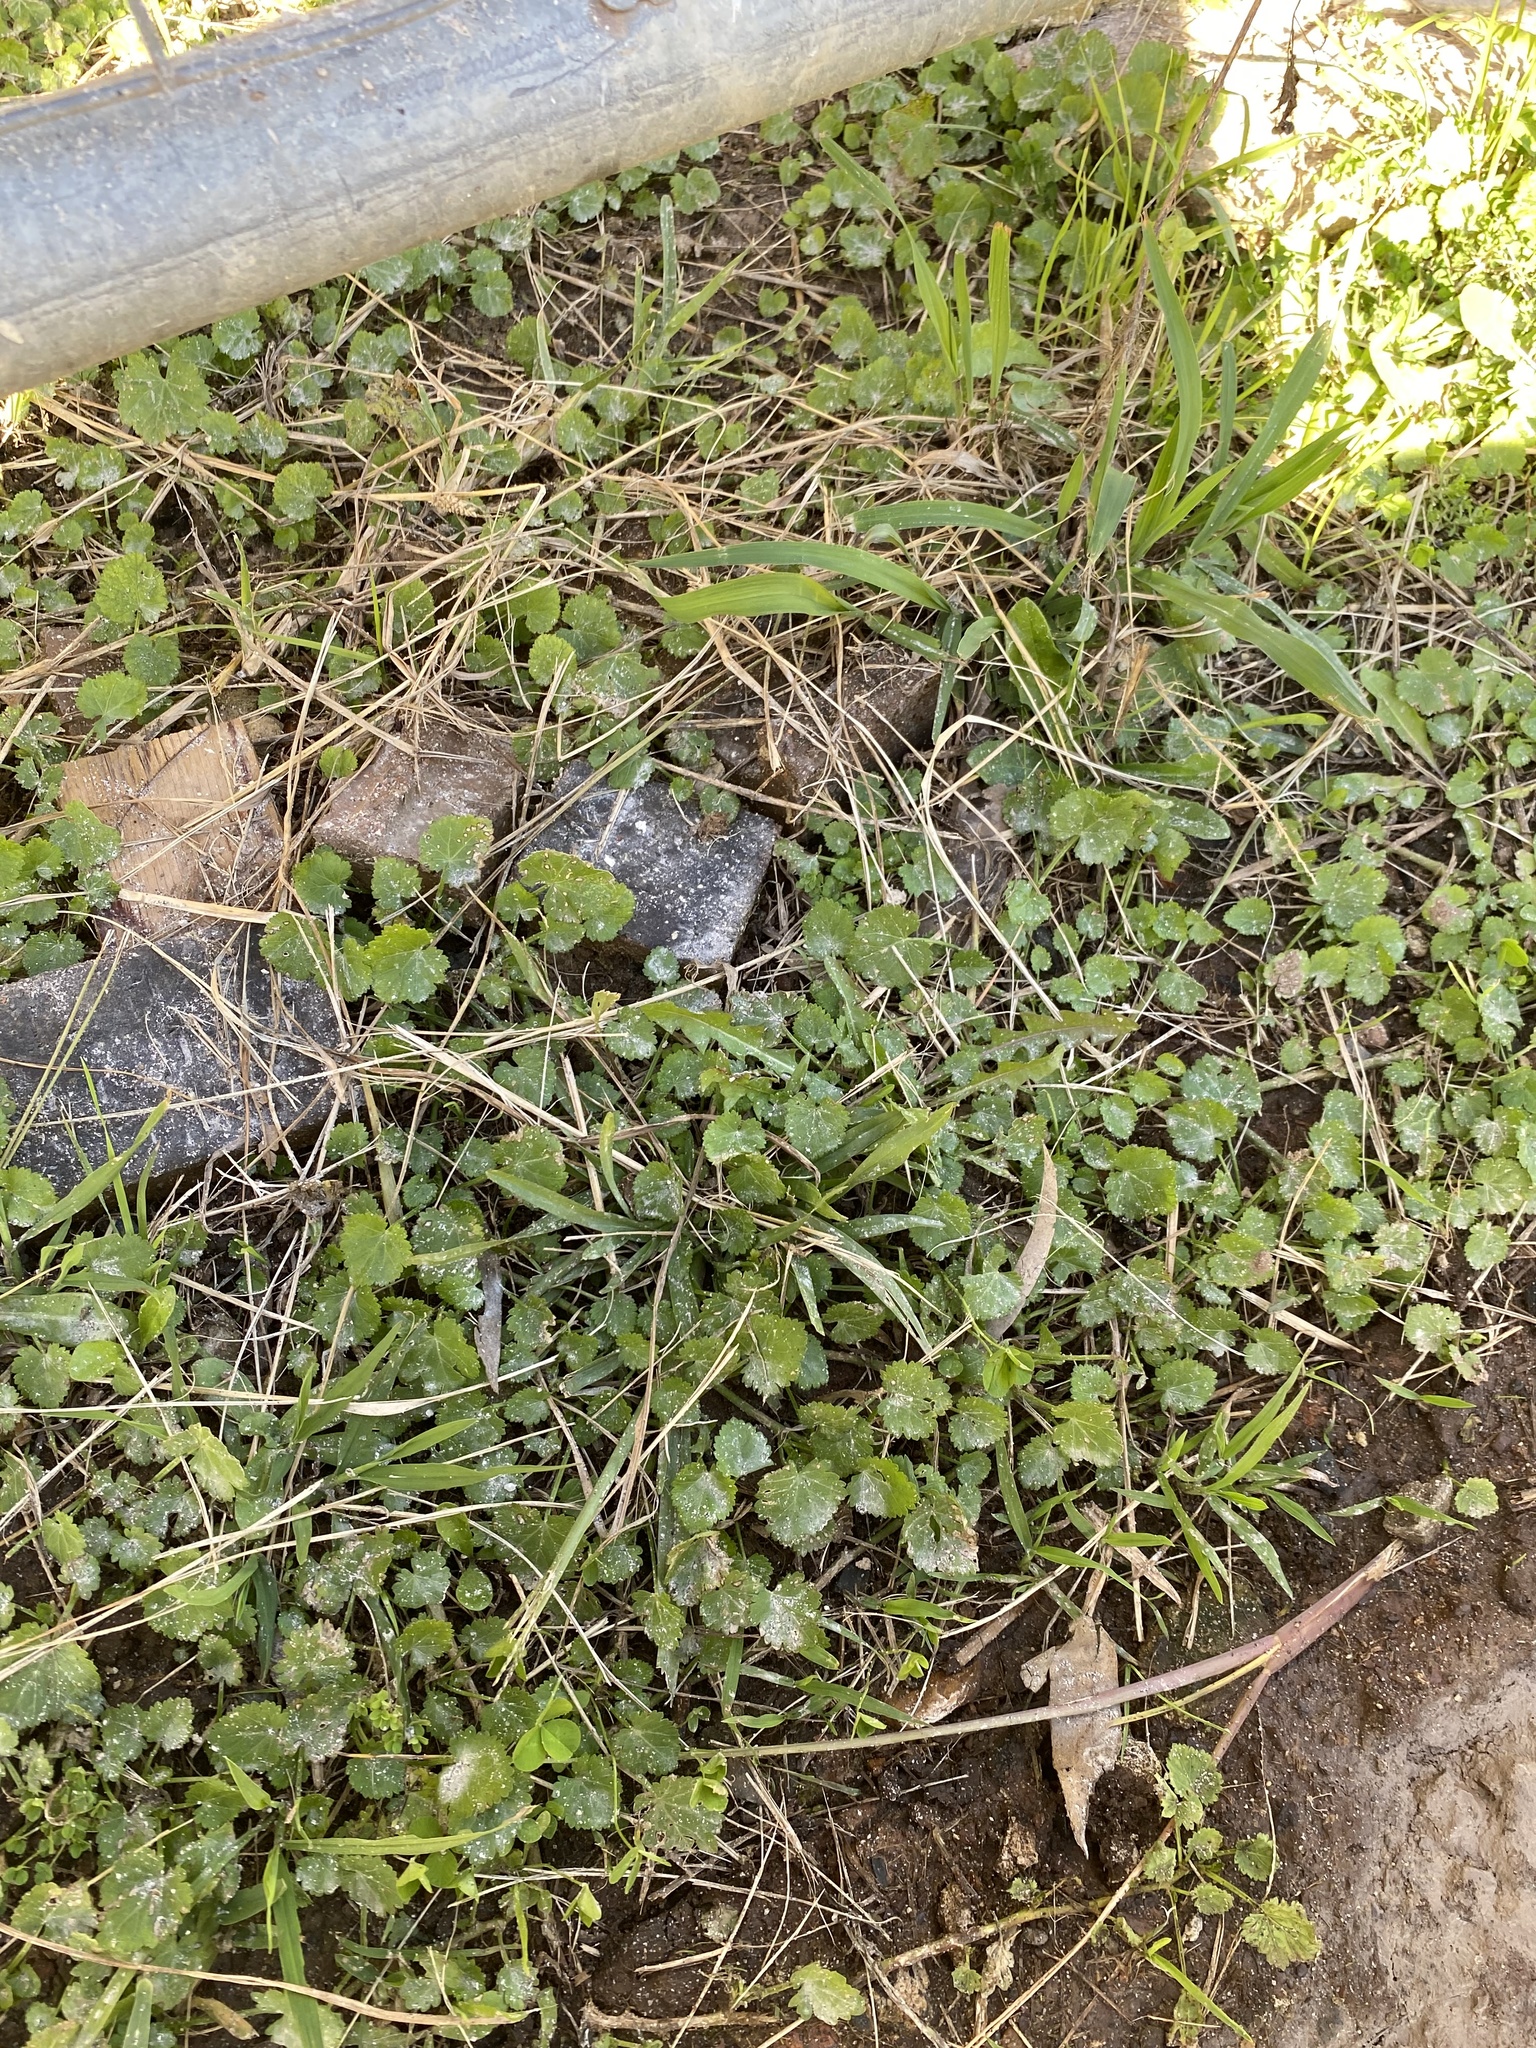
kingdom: Plantae
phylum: Tracheophyta
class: Magnoliopsida
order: Malvales
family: Malvaceae
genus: Modiola
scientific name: Modiola caroliniana
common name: Carolina bristlemallow
